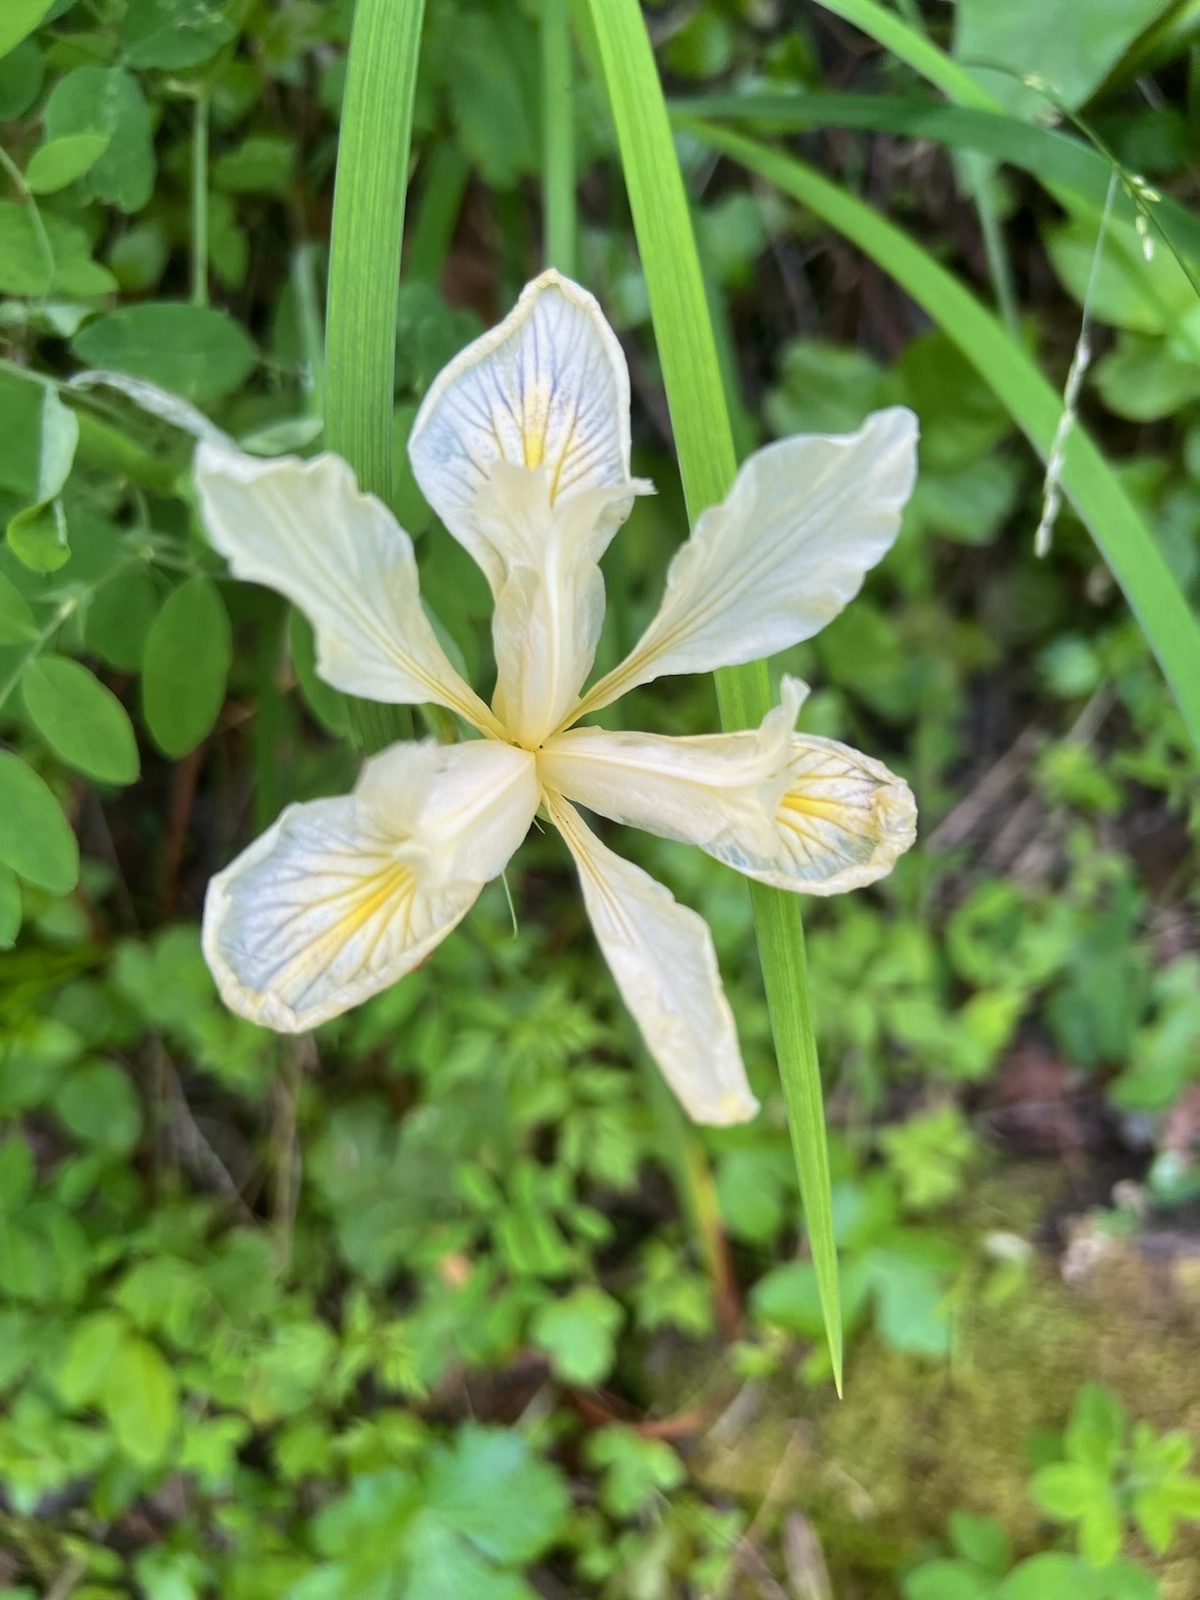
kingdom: Plantae
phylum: Tracheophyta
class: Liliopsida
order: Asparagales
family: Iridaceae
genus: Iris
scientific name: Iris douglasiana
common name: Marin iris
